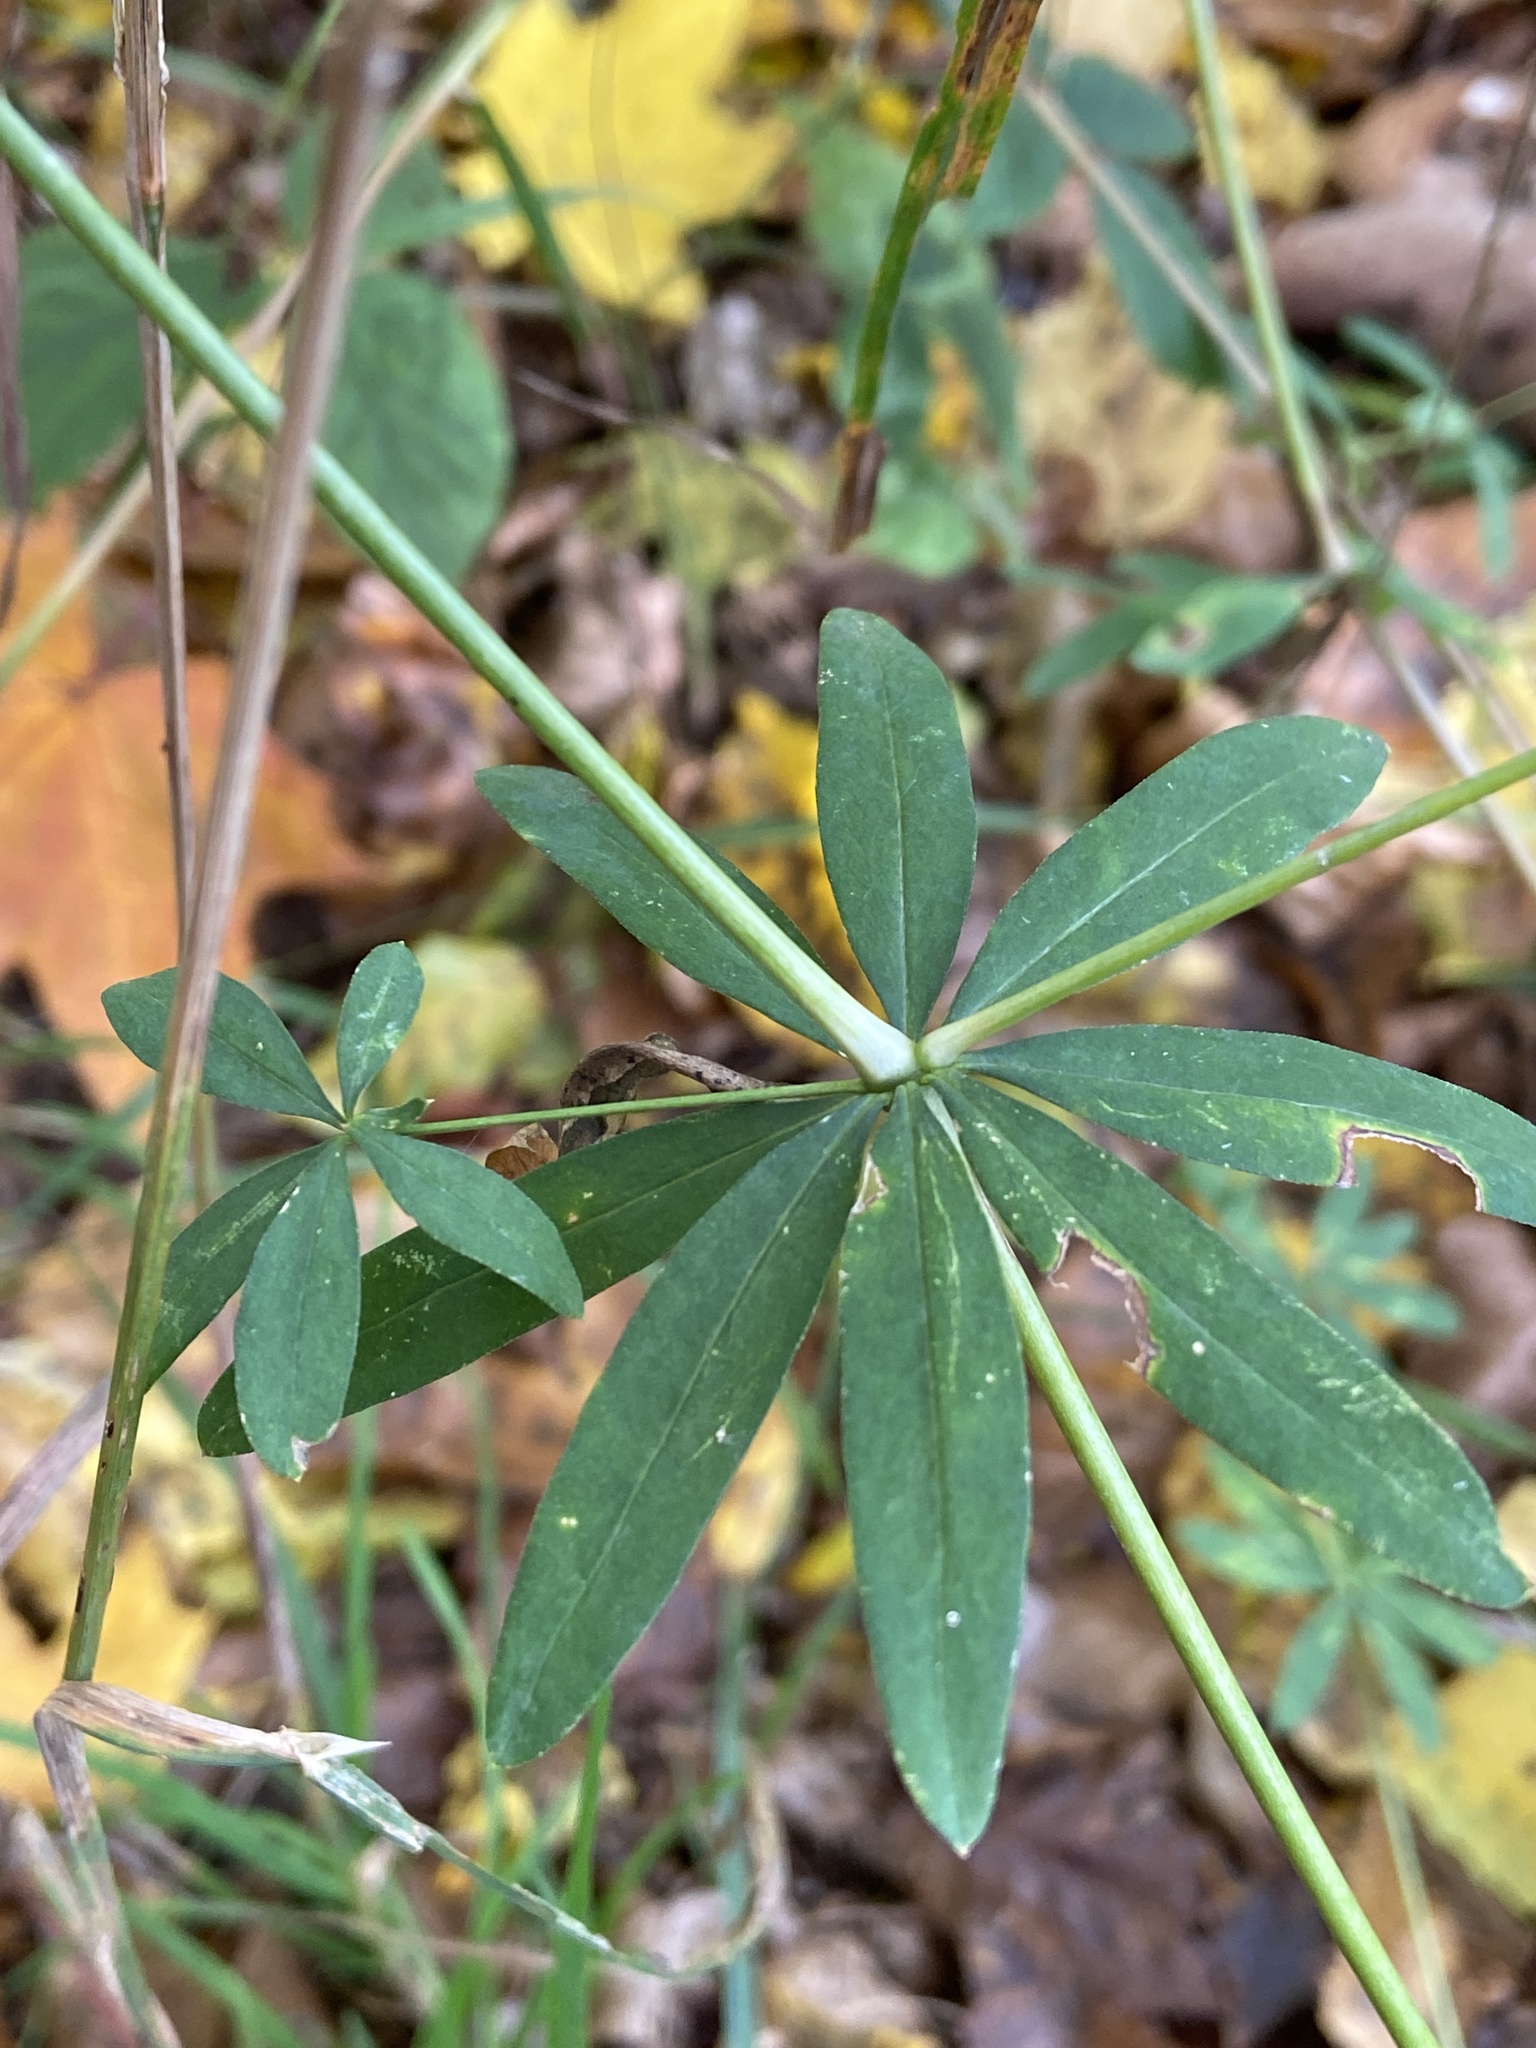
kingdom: Plantae
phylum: Tracheophyta
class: Magnoliopsida
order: Gentianales
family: Rubiaceae
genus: Galium
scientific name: Galium sylvaticum
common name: Wood bedstraw
